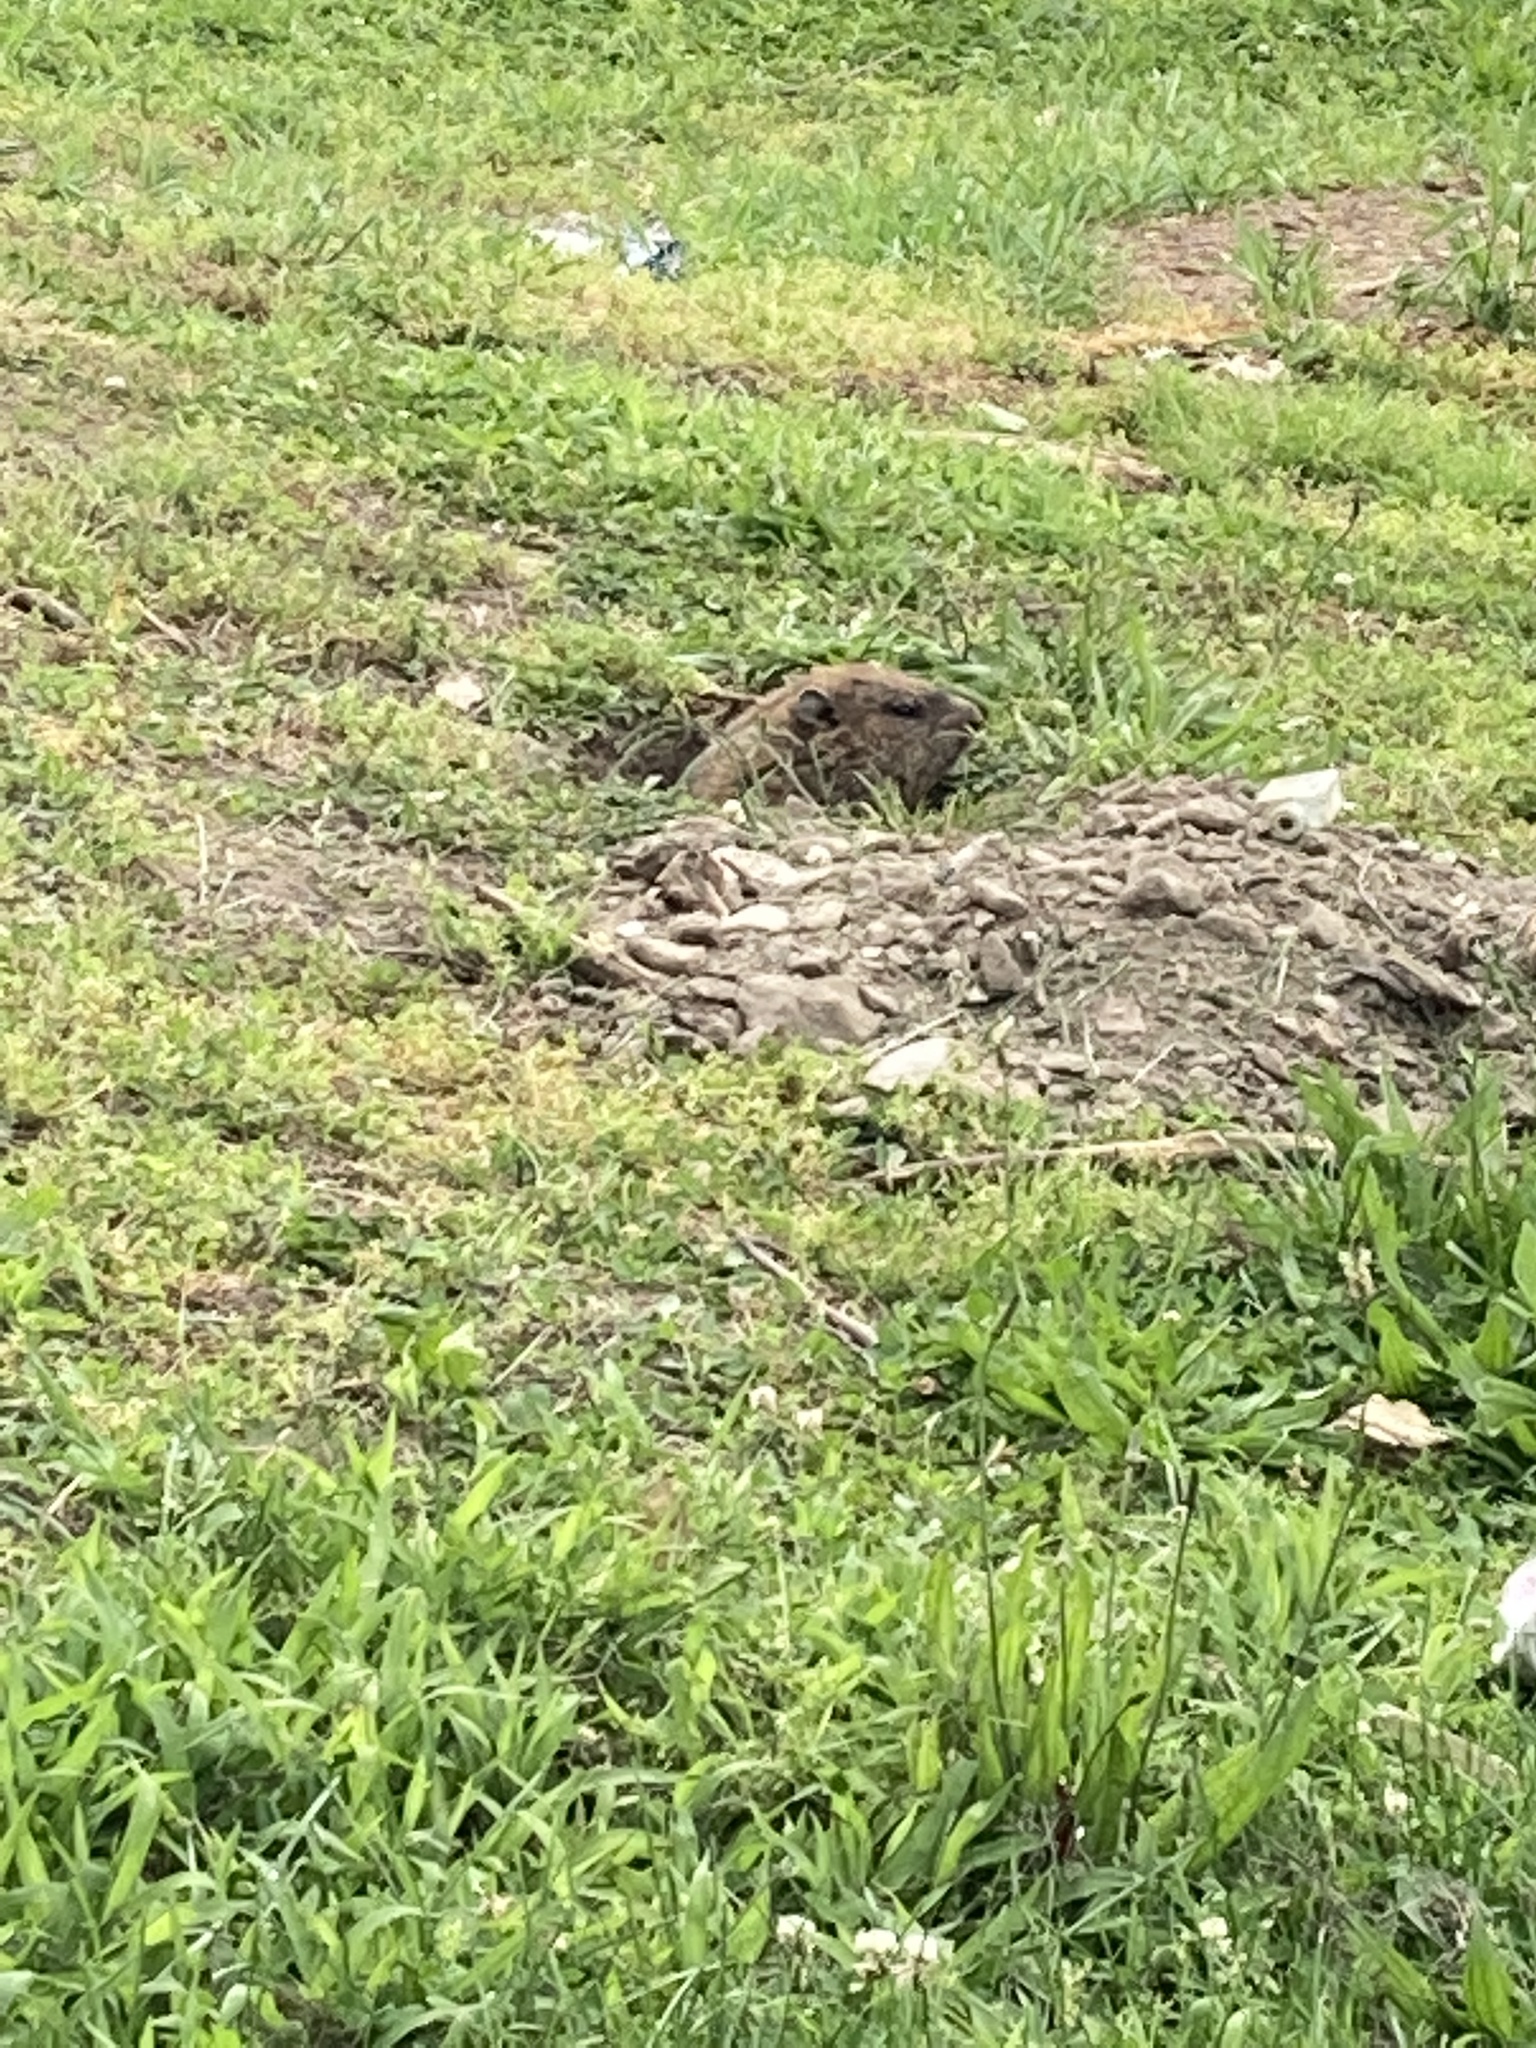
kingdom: Animalia
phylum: Chordata
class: Mammalia
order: Rodentia
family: Sciuridae
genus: Marmota
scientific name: Marmota monax
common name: Groundhog
